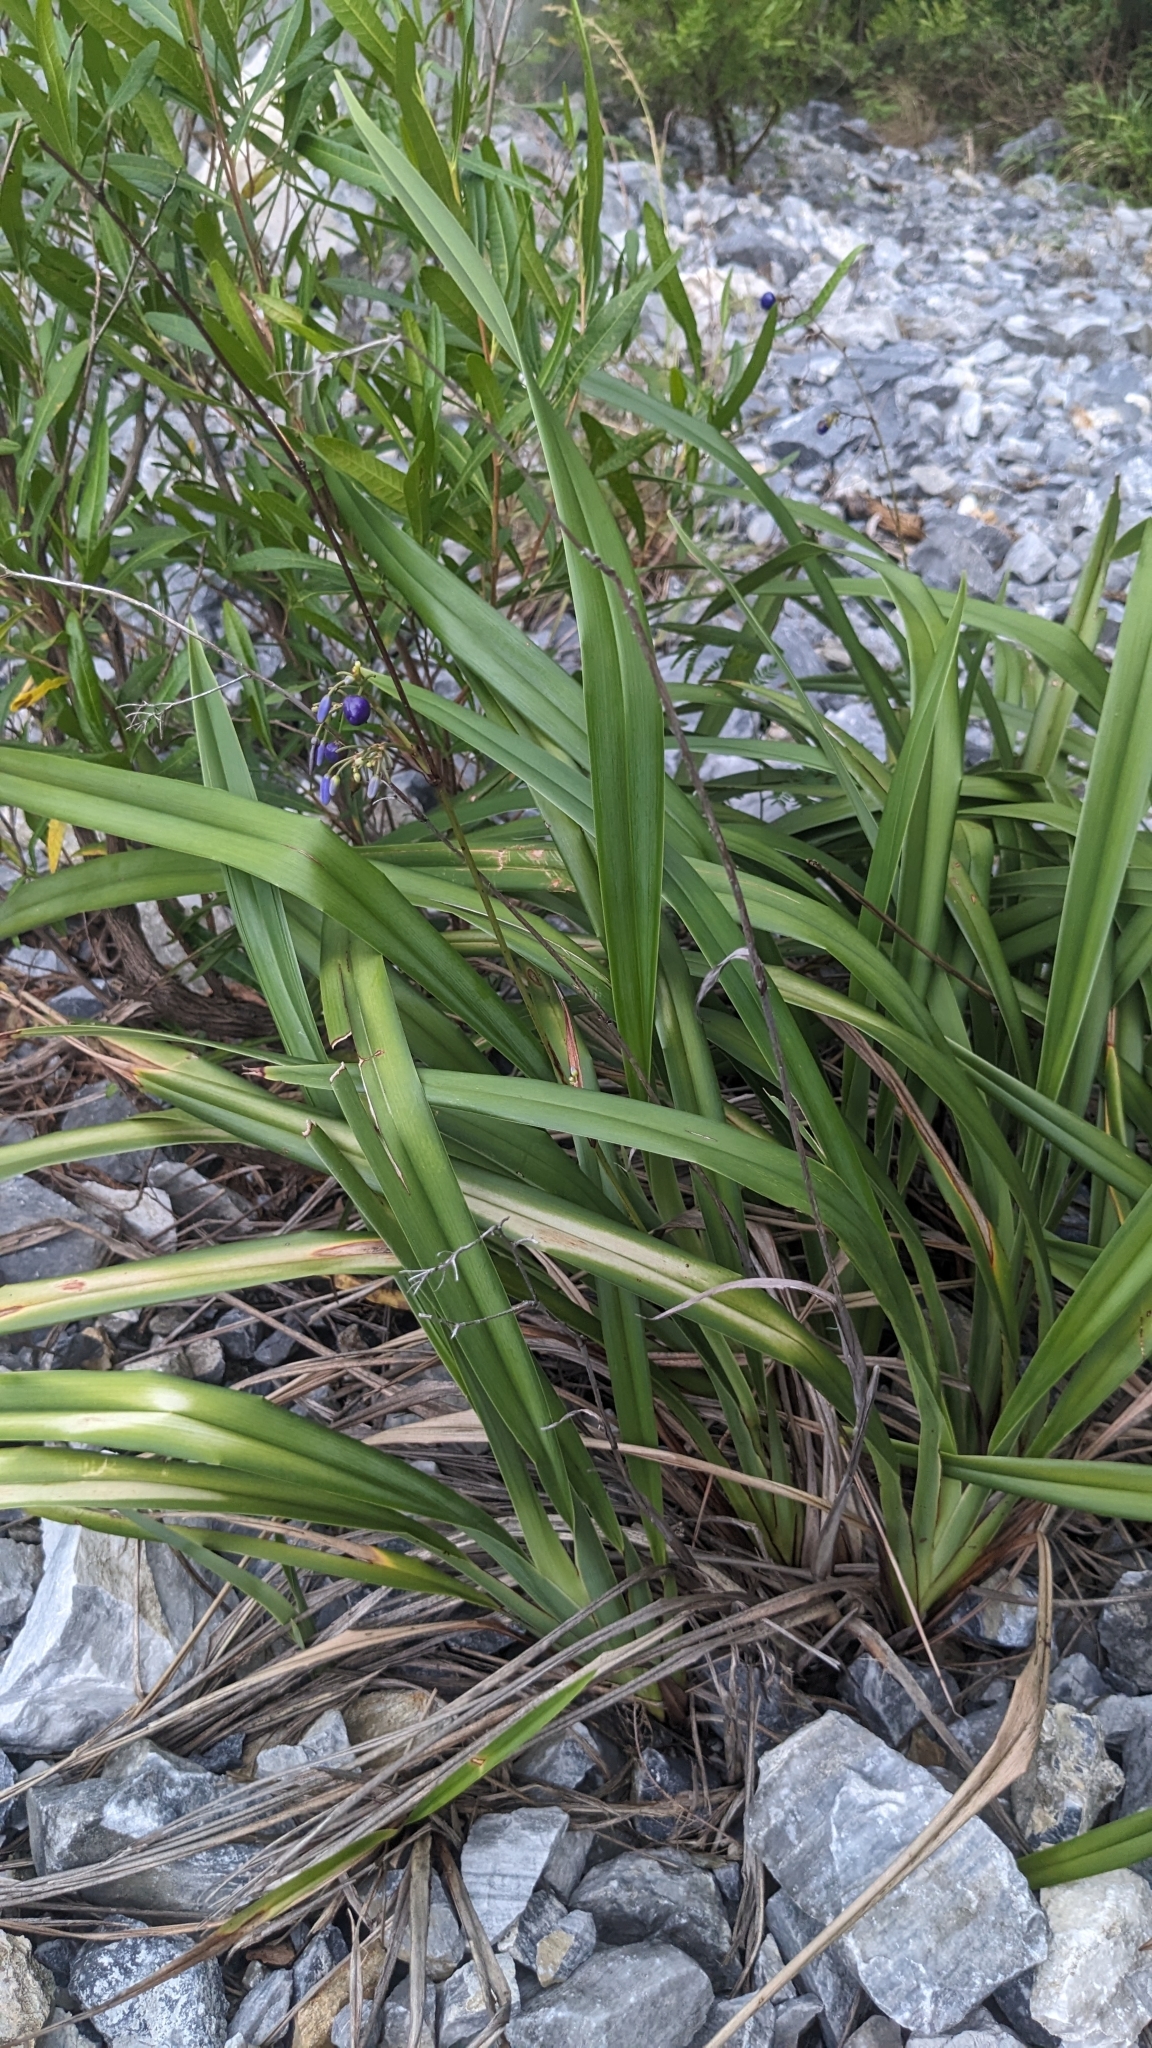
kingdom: Plantae
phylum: Tracheophyta
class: Liliopsida
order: Asparagales
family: Asphodelaceae
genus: Dianella
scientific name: Dianella ensifolia
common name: New zealand lilyplant
